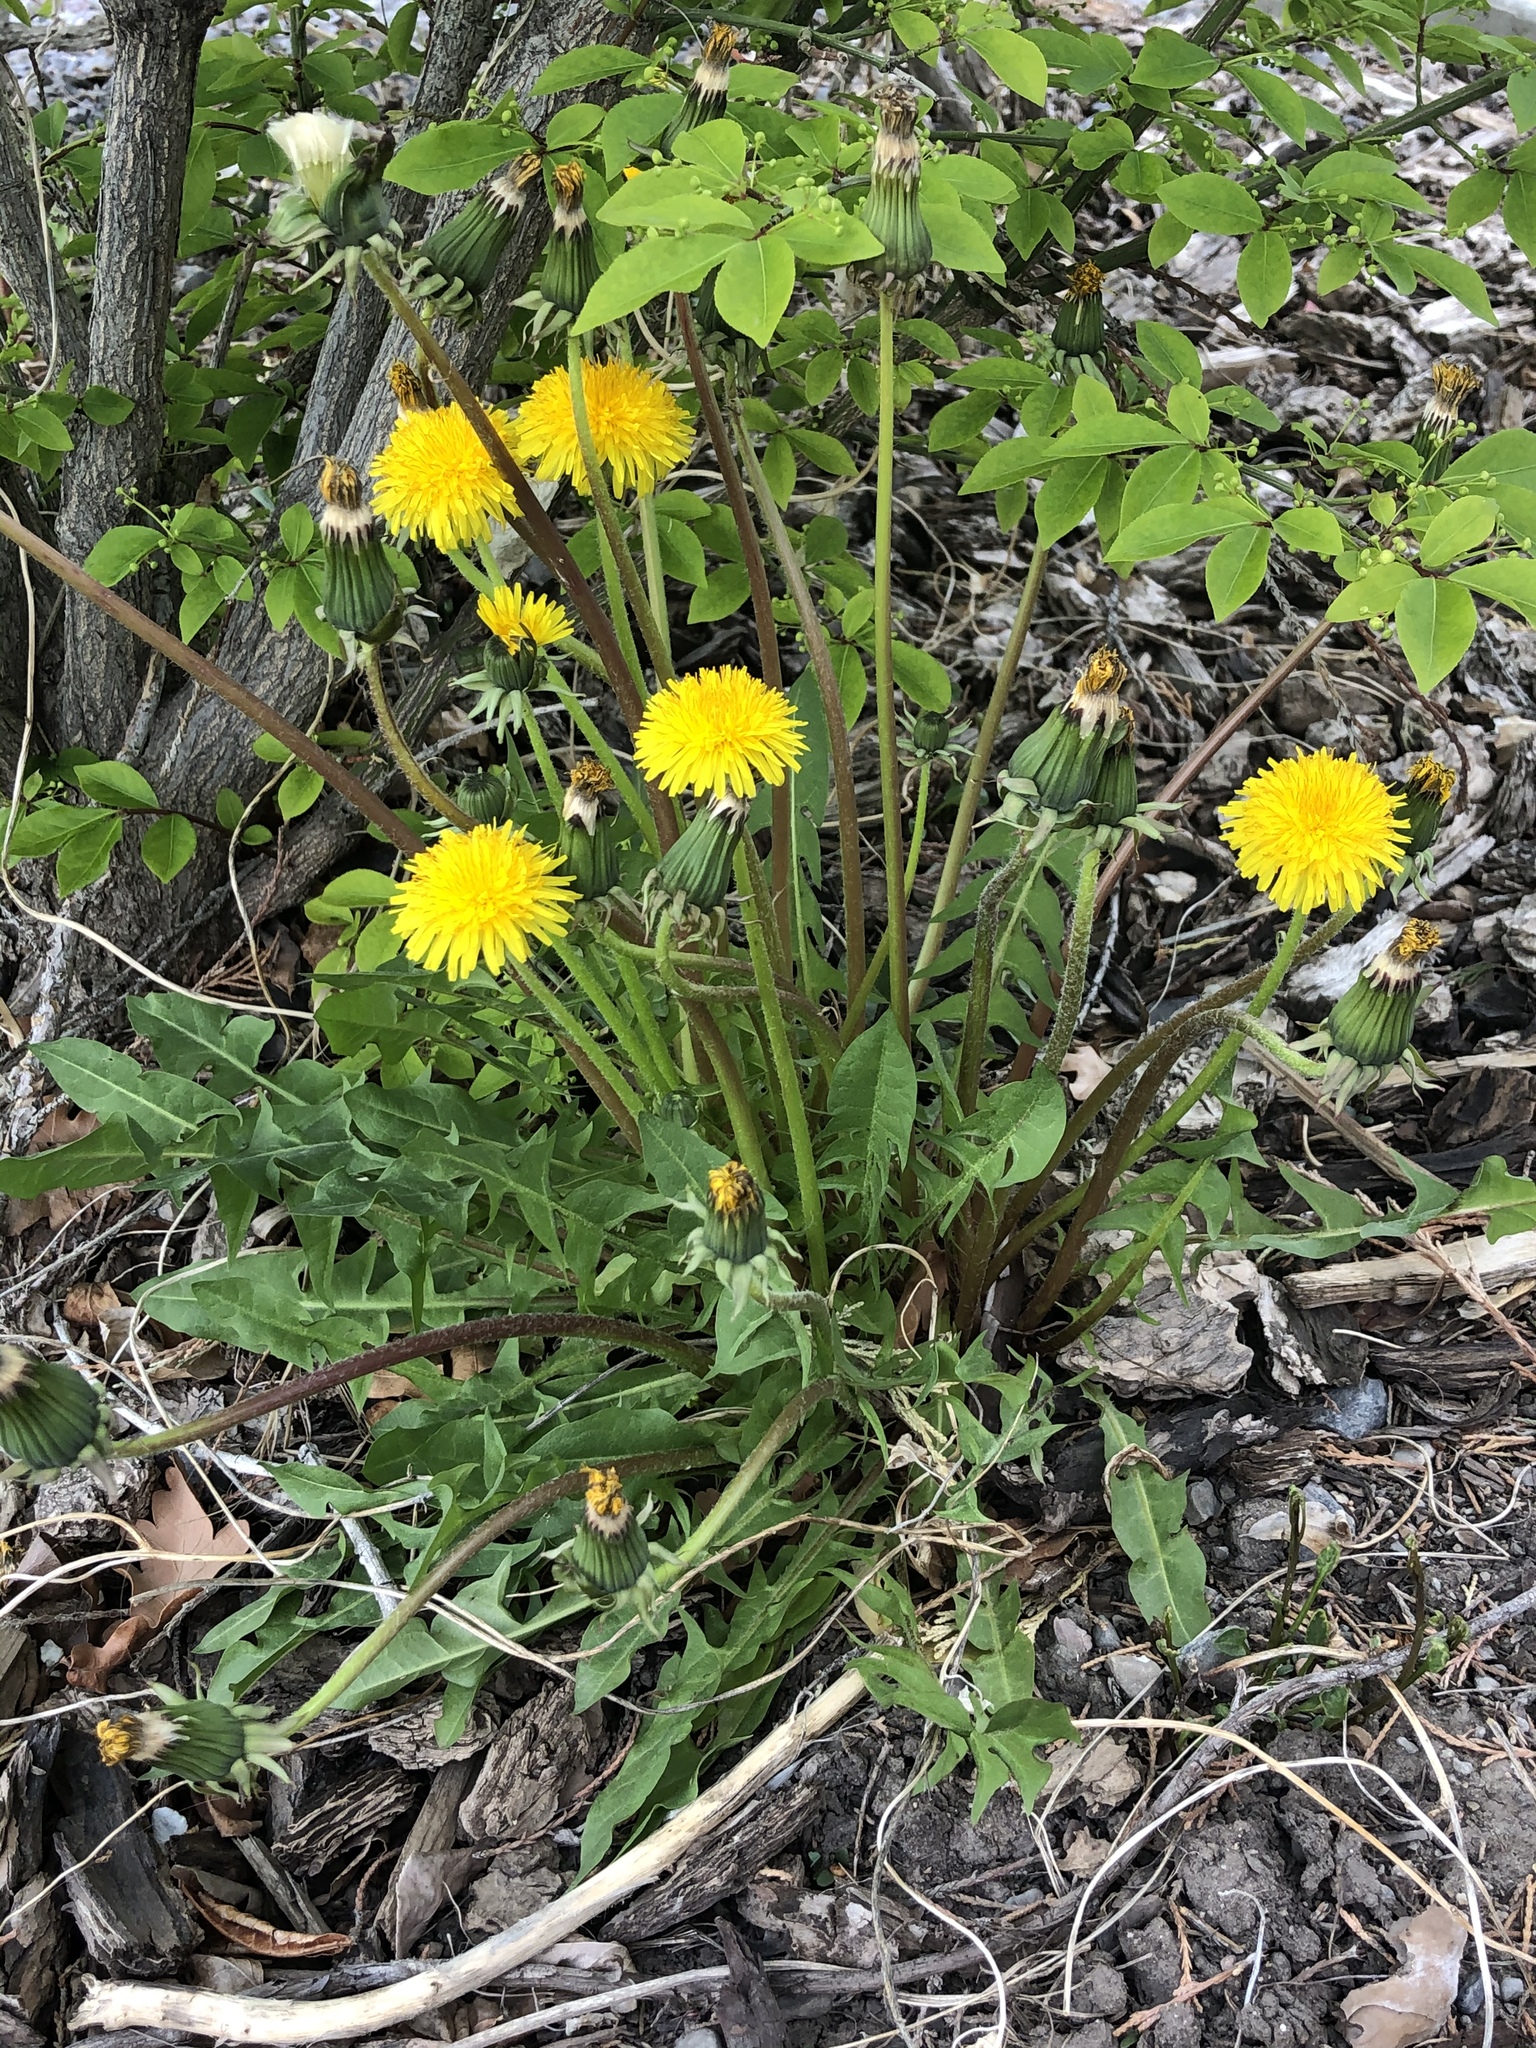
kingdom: Plantae
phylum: Tracheophyta
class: Magnoliopsida
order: Asterales
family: Asteraceae
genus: Taraxacum
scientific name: Taraxacum officinale
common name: Common dandelion
